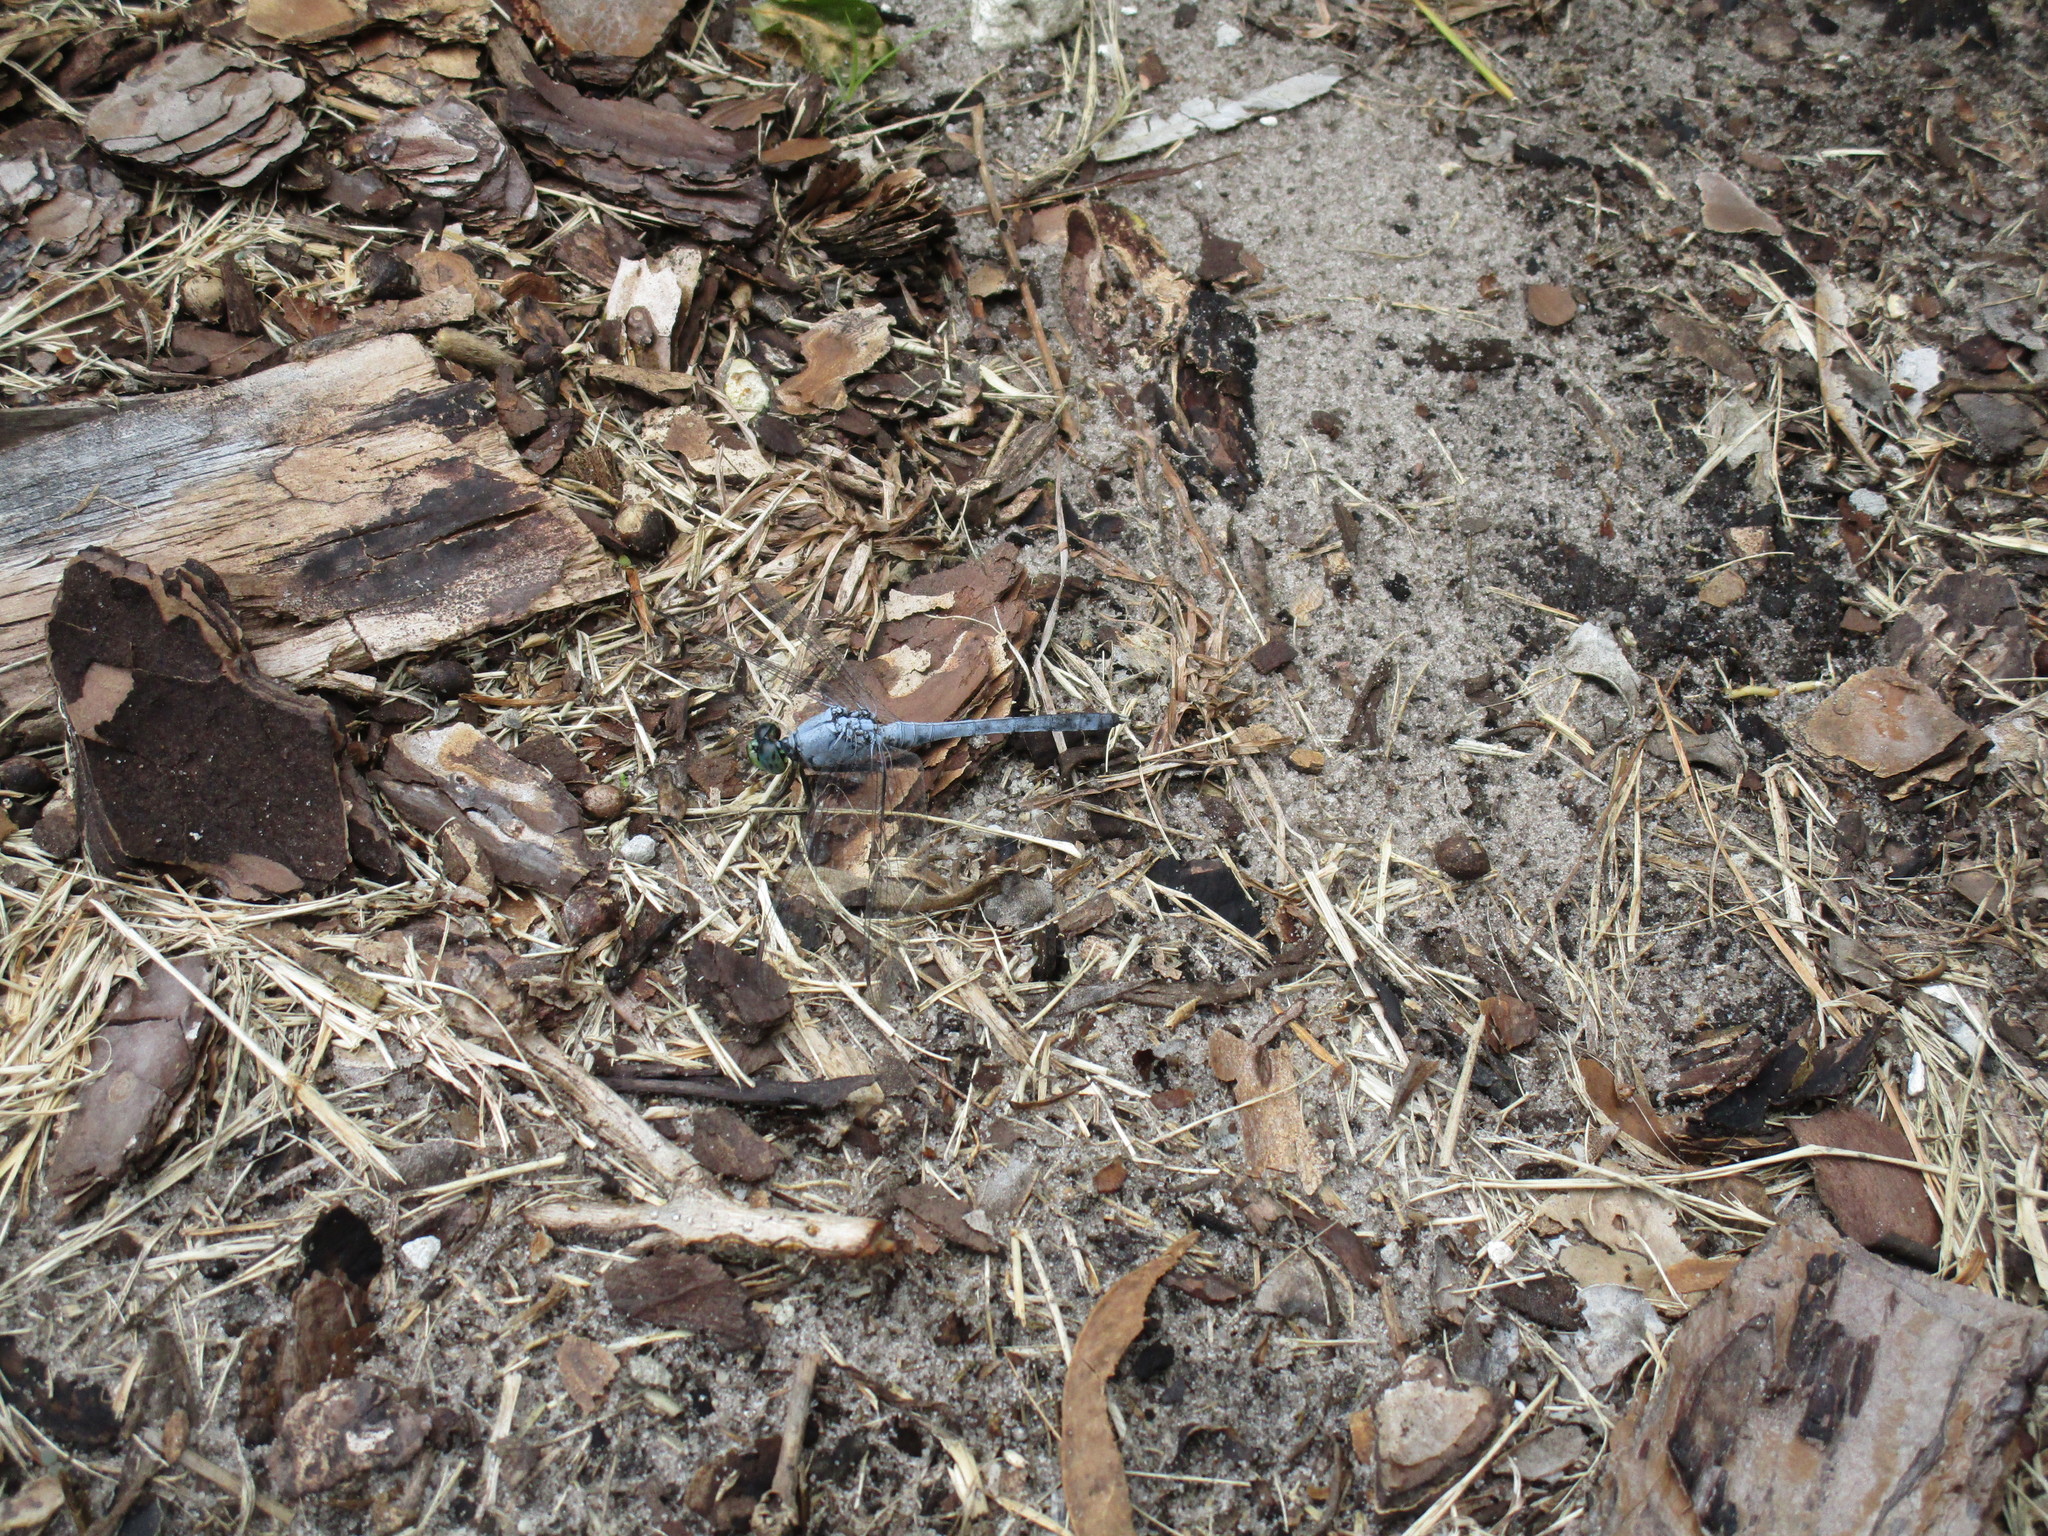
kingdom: Animalia
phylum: Arthropoda
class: Insecta
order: Odonata
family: Libellulidae
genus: Erythemis
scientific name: Erythemis simplicicollis
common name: Eastern pondhawk
